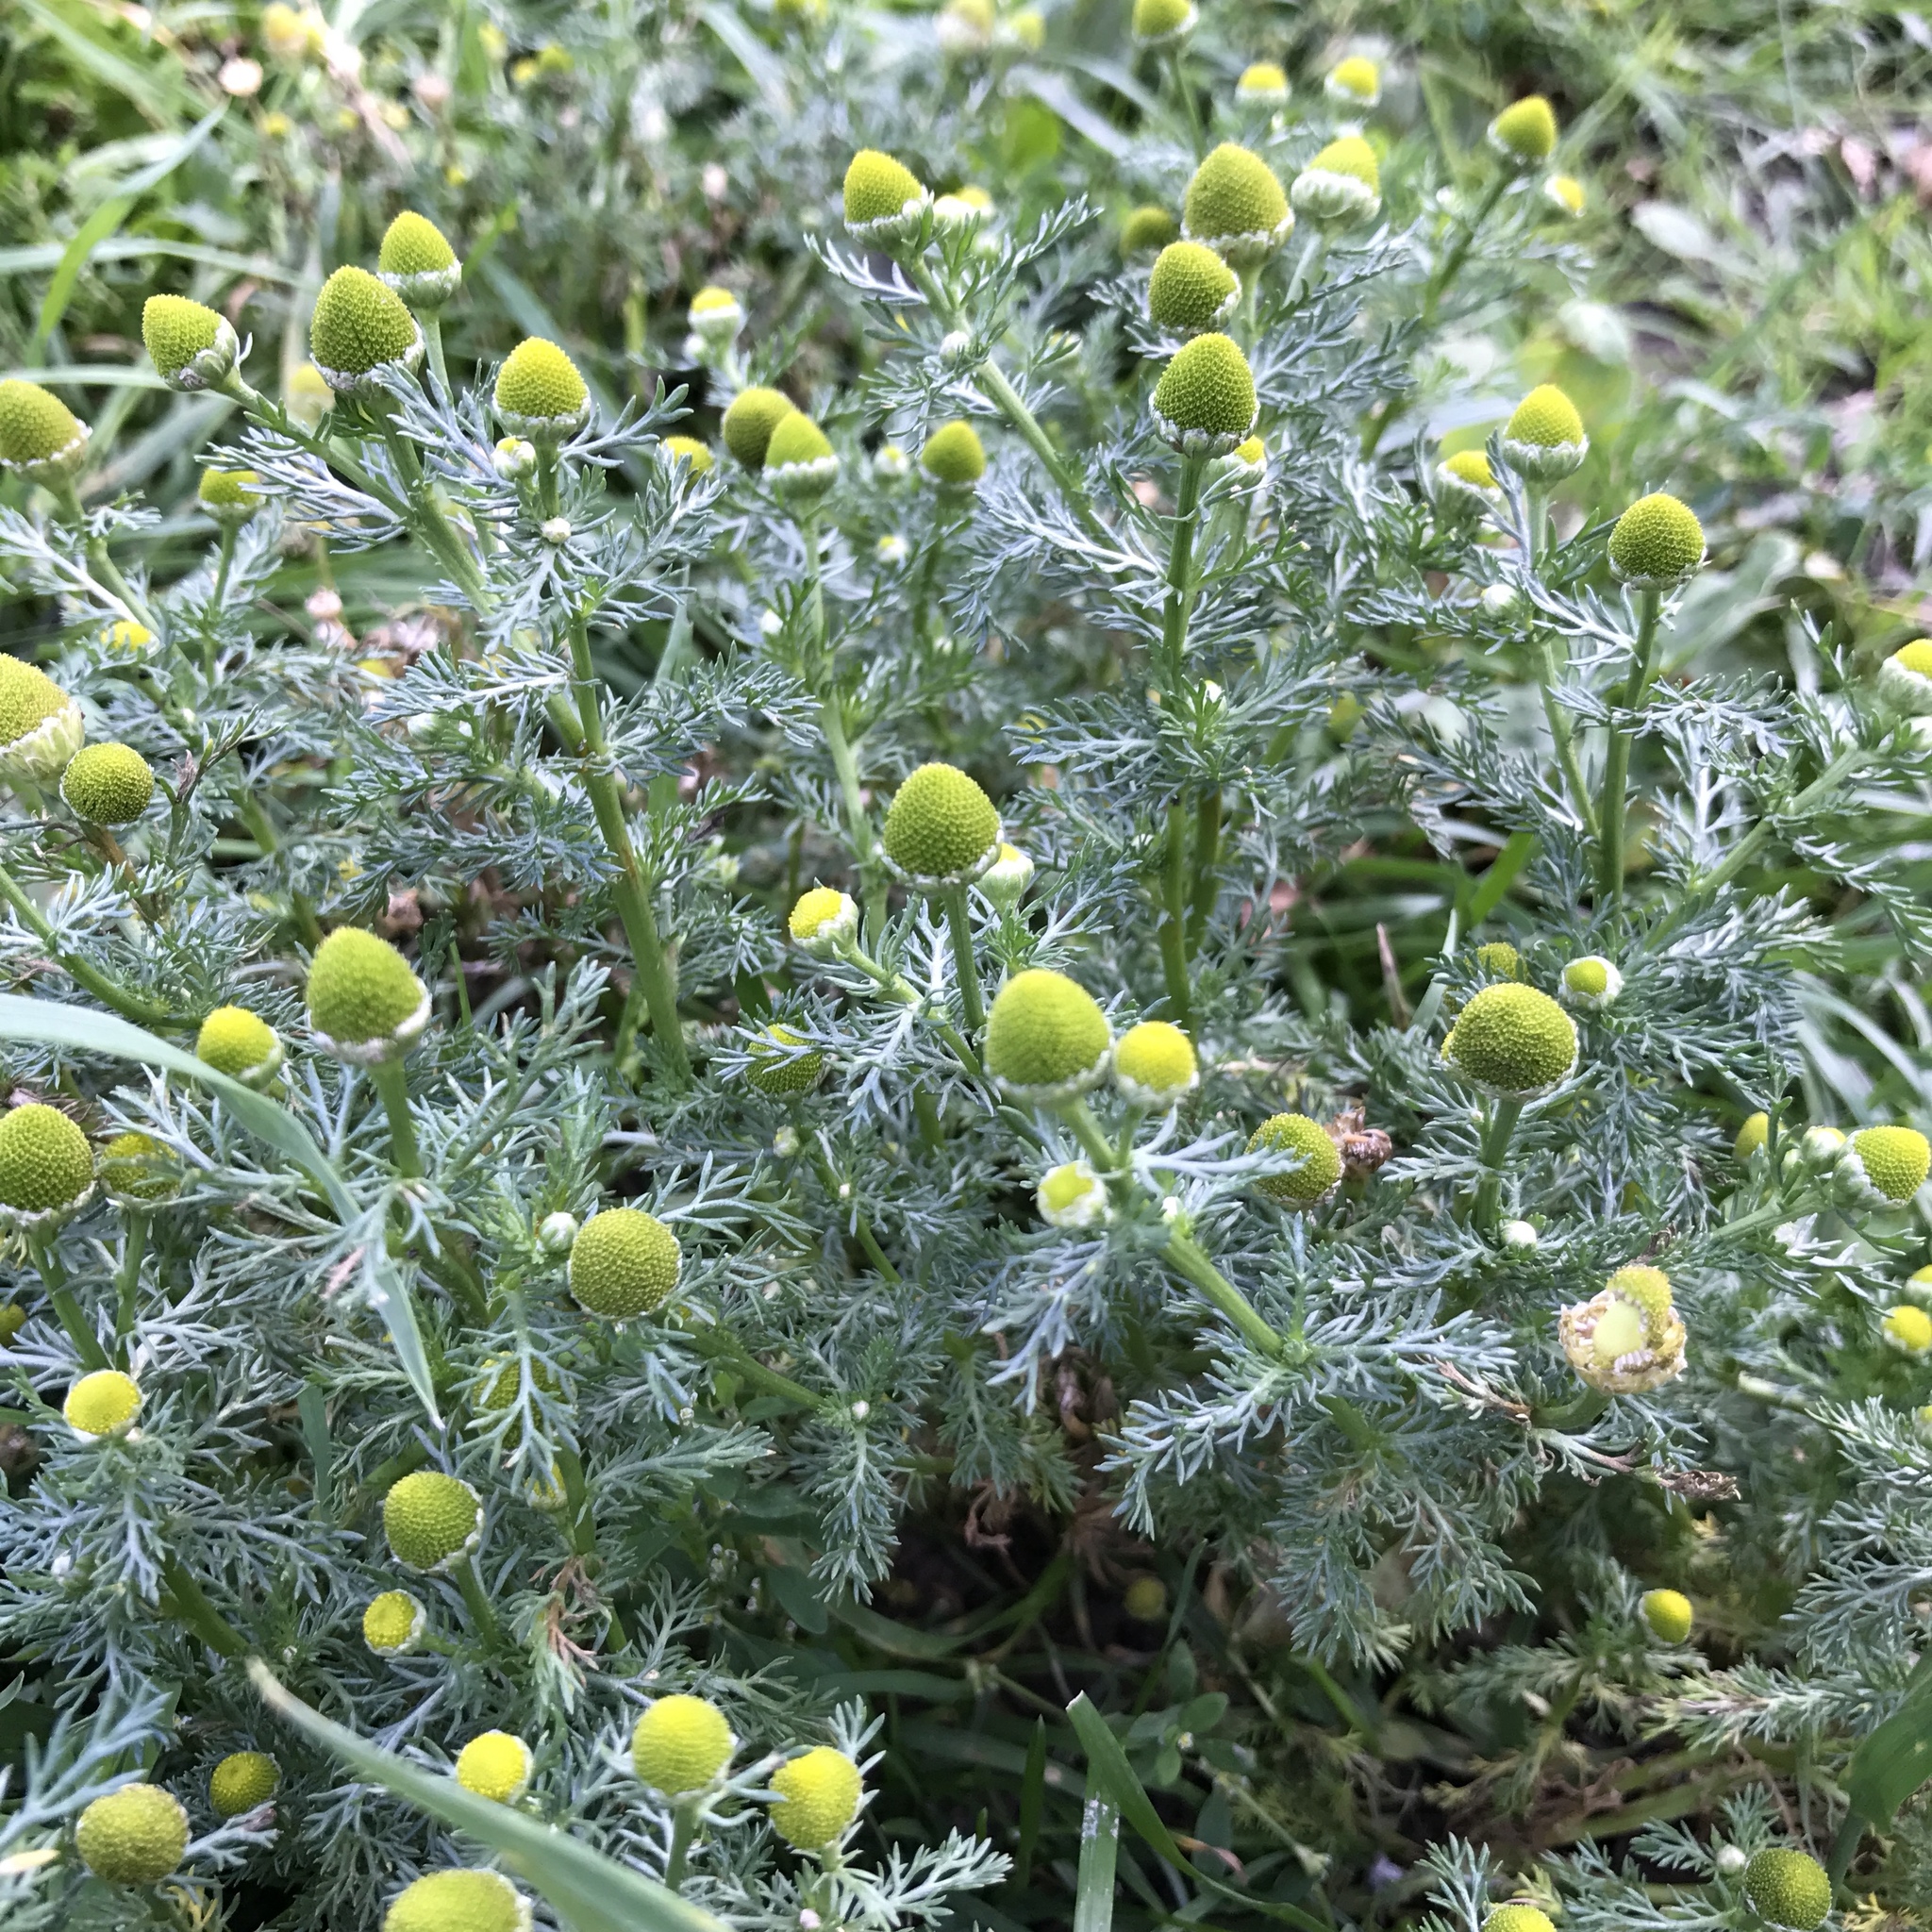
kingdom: Plantae
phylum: Tracheophyta
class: Magnoliopsida
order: Asterales
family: Asteraceae
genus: Matricaria
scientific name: Matricaria discoidea
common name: Disc mayweed
